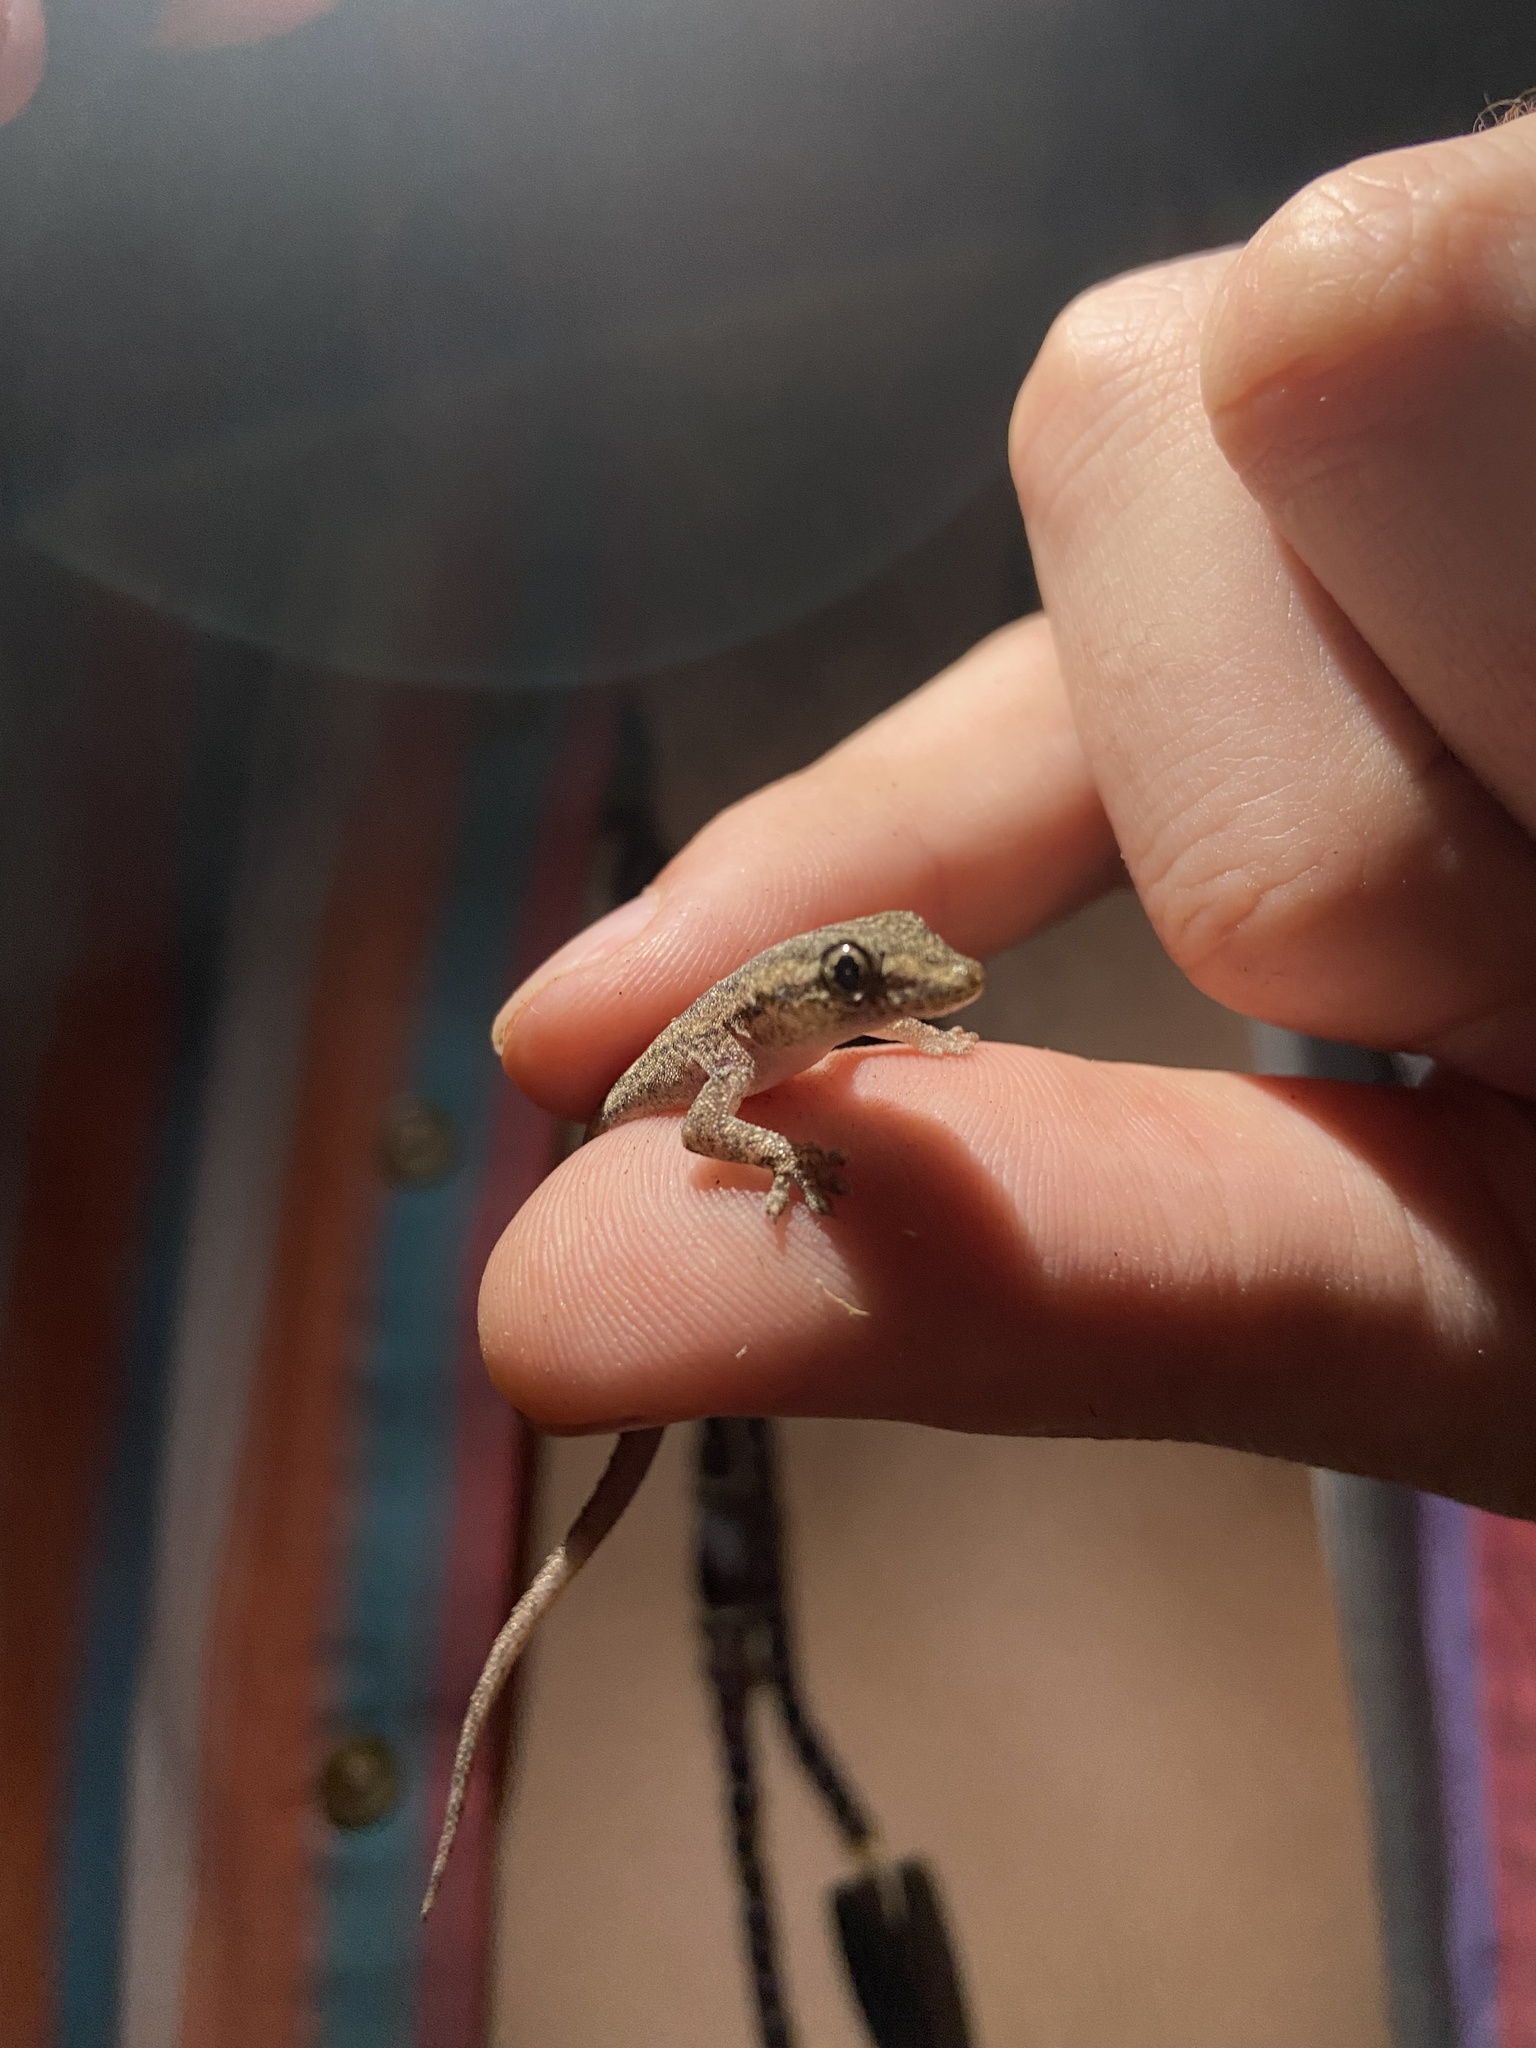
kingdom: Animalia
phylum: Chordata
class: Squamata
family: Gekkonidae
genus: Lepidodactylus
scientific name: Lepidodactylus lugubris
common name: Mourning gecko
